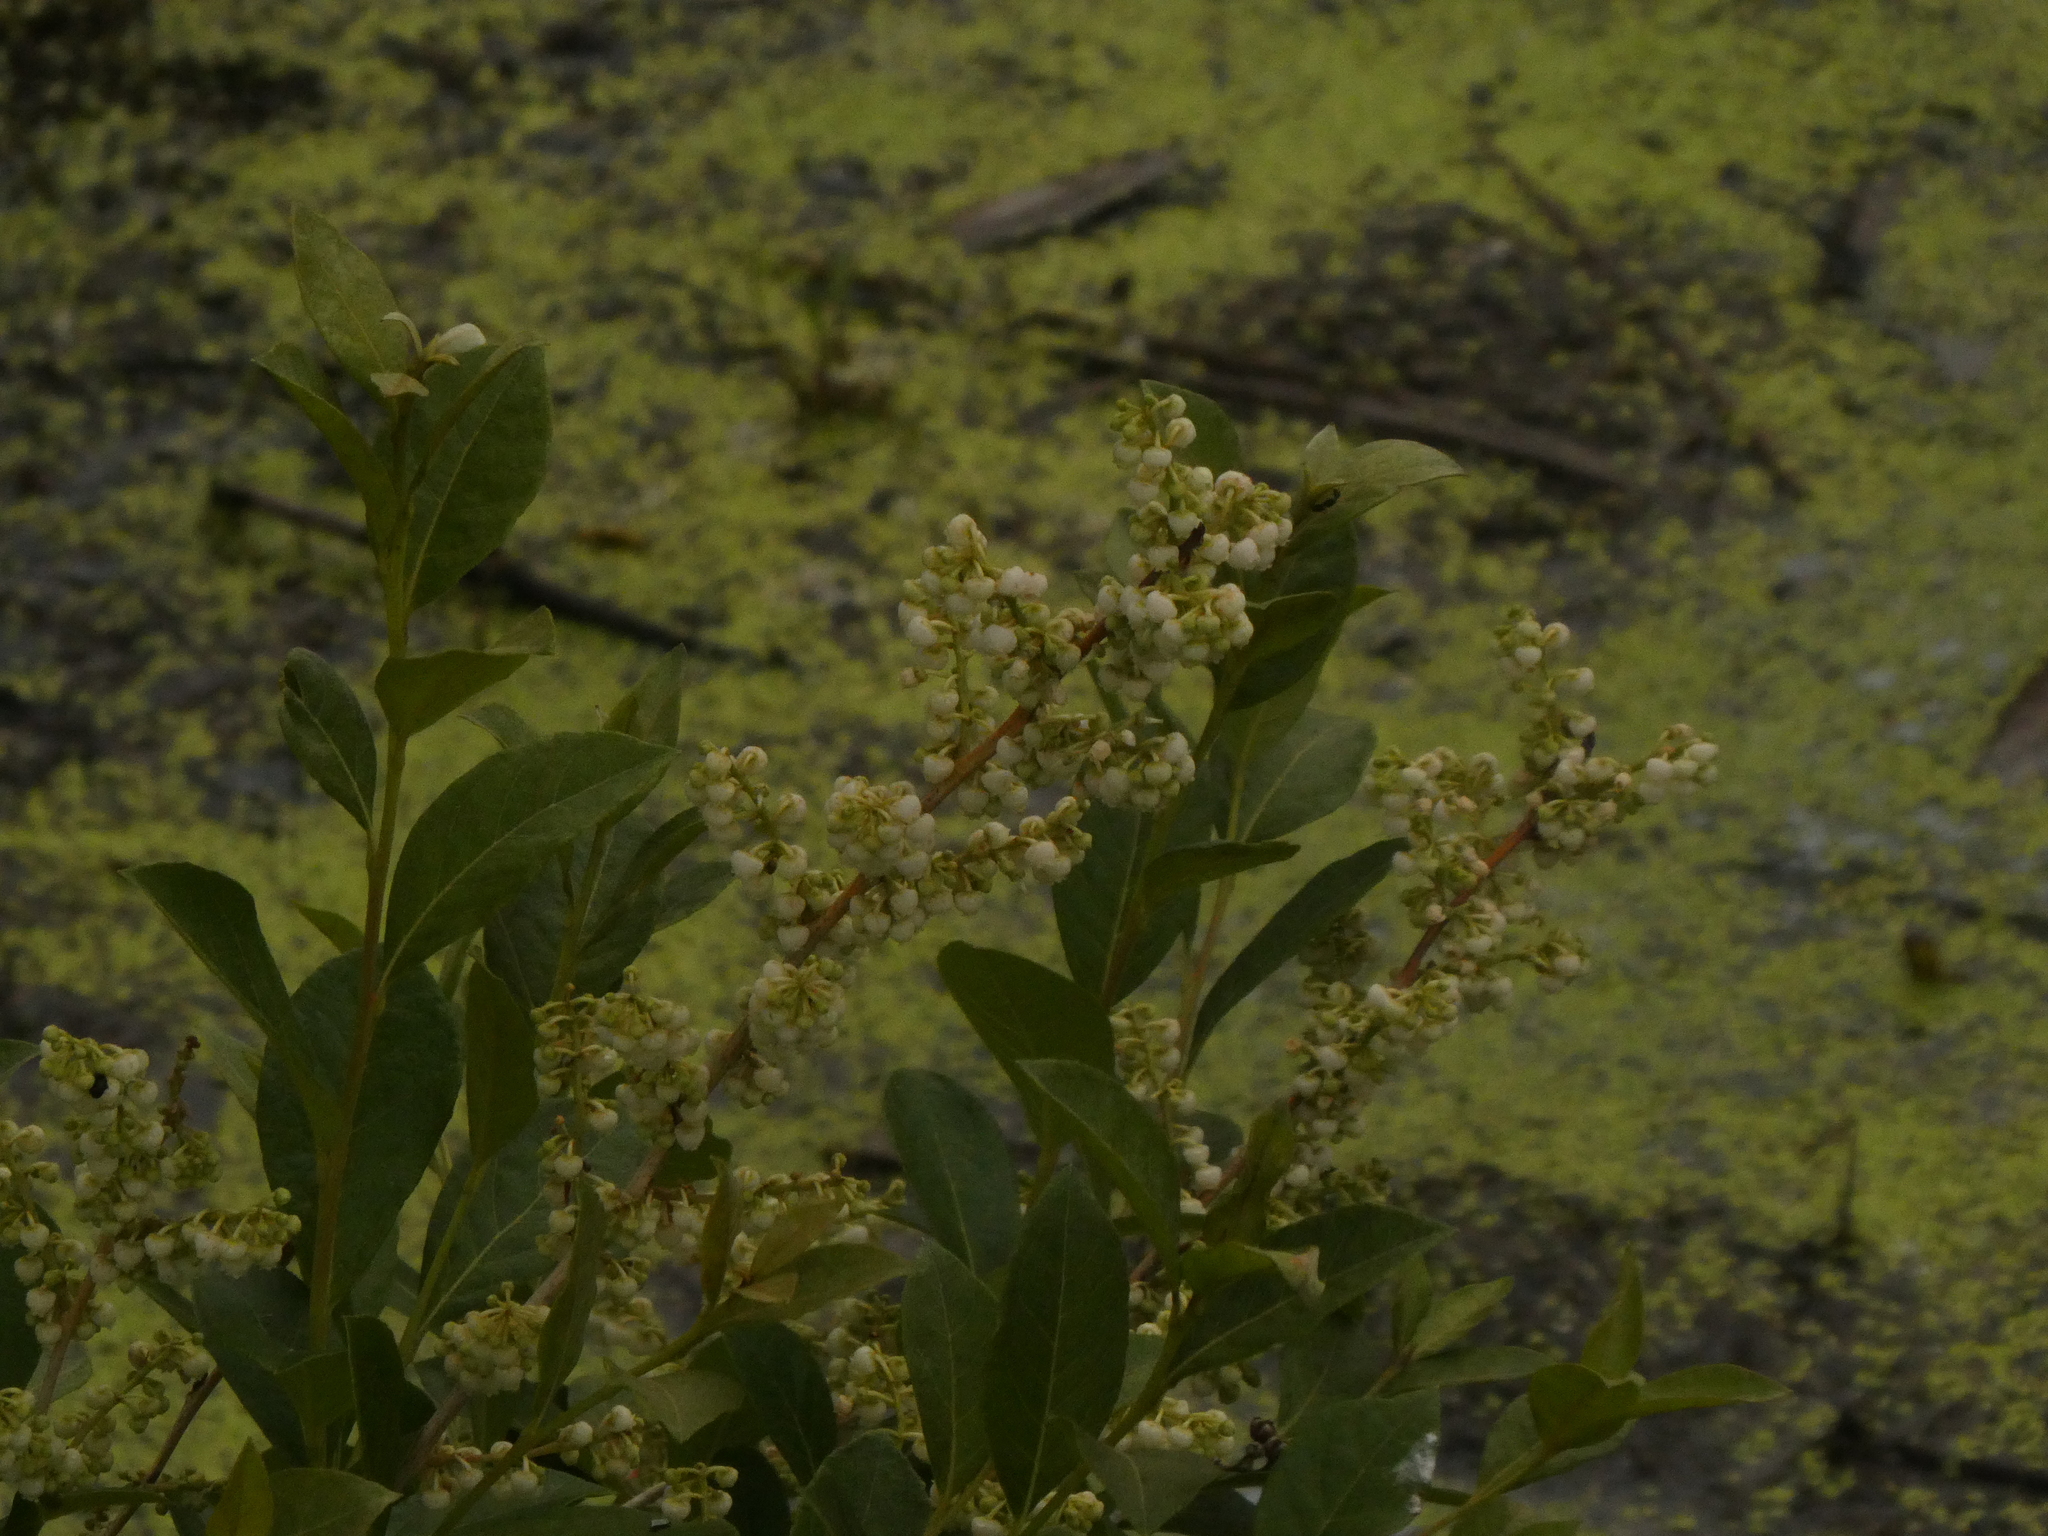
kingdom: Plantae
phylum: Tracheophyta
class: Magnoliopsida
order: Ericales
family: Ericaceae
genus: Lyonia
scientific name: Lyonia ligustrina
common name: Maleberry
